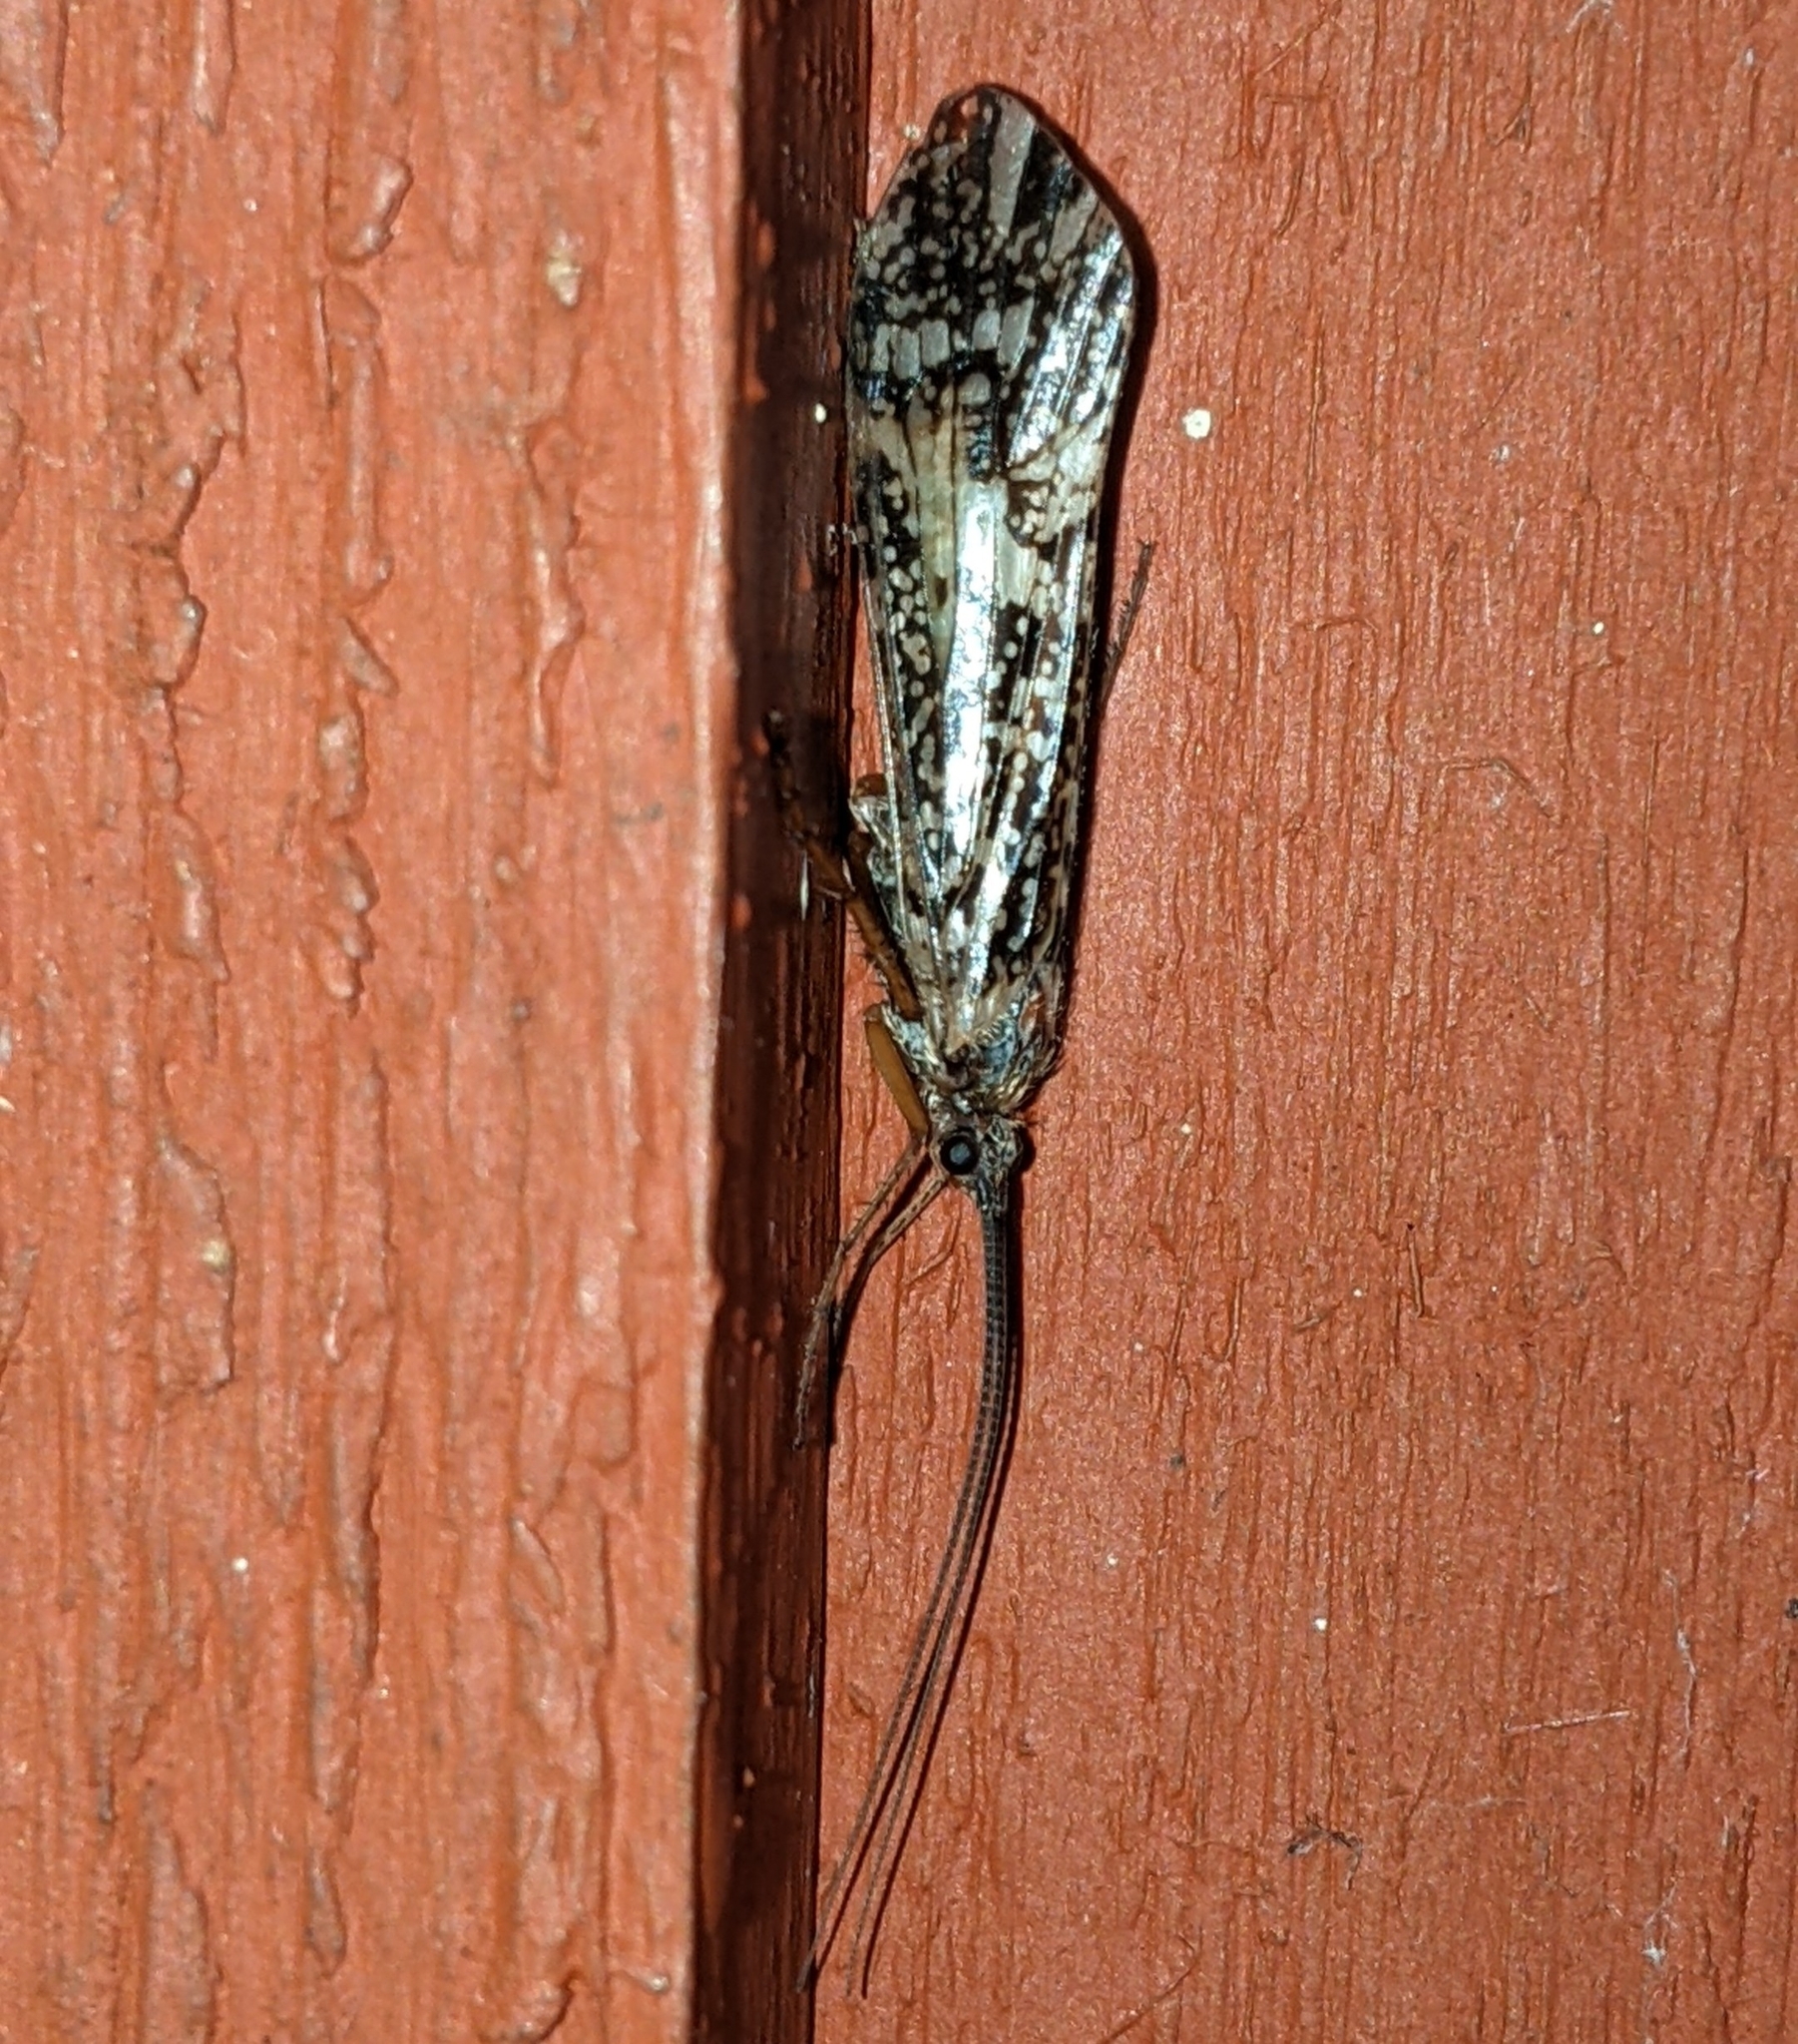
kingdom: Animalia
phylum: Arthropoda
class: Insecta
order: Trichoptera
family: Limnephilidae
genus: Clistoronia
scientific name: Clistoronia magnifica
